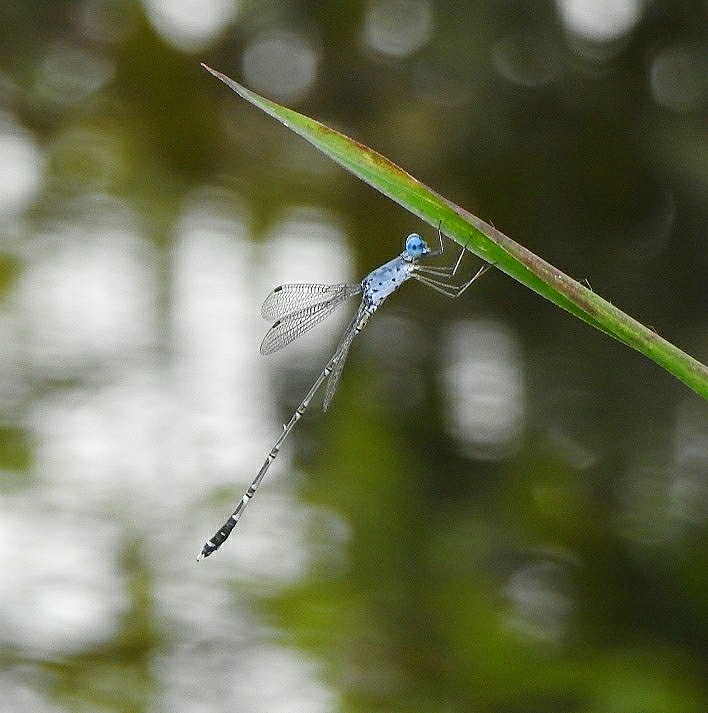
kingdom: Animalia
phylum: Arthropoda
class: Insecta
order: Odonata
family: Lestidae
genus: Lestes
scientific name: Lestes praemorsus
